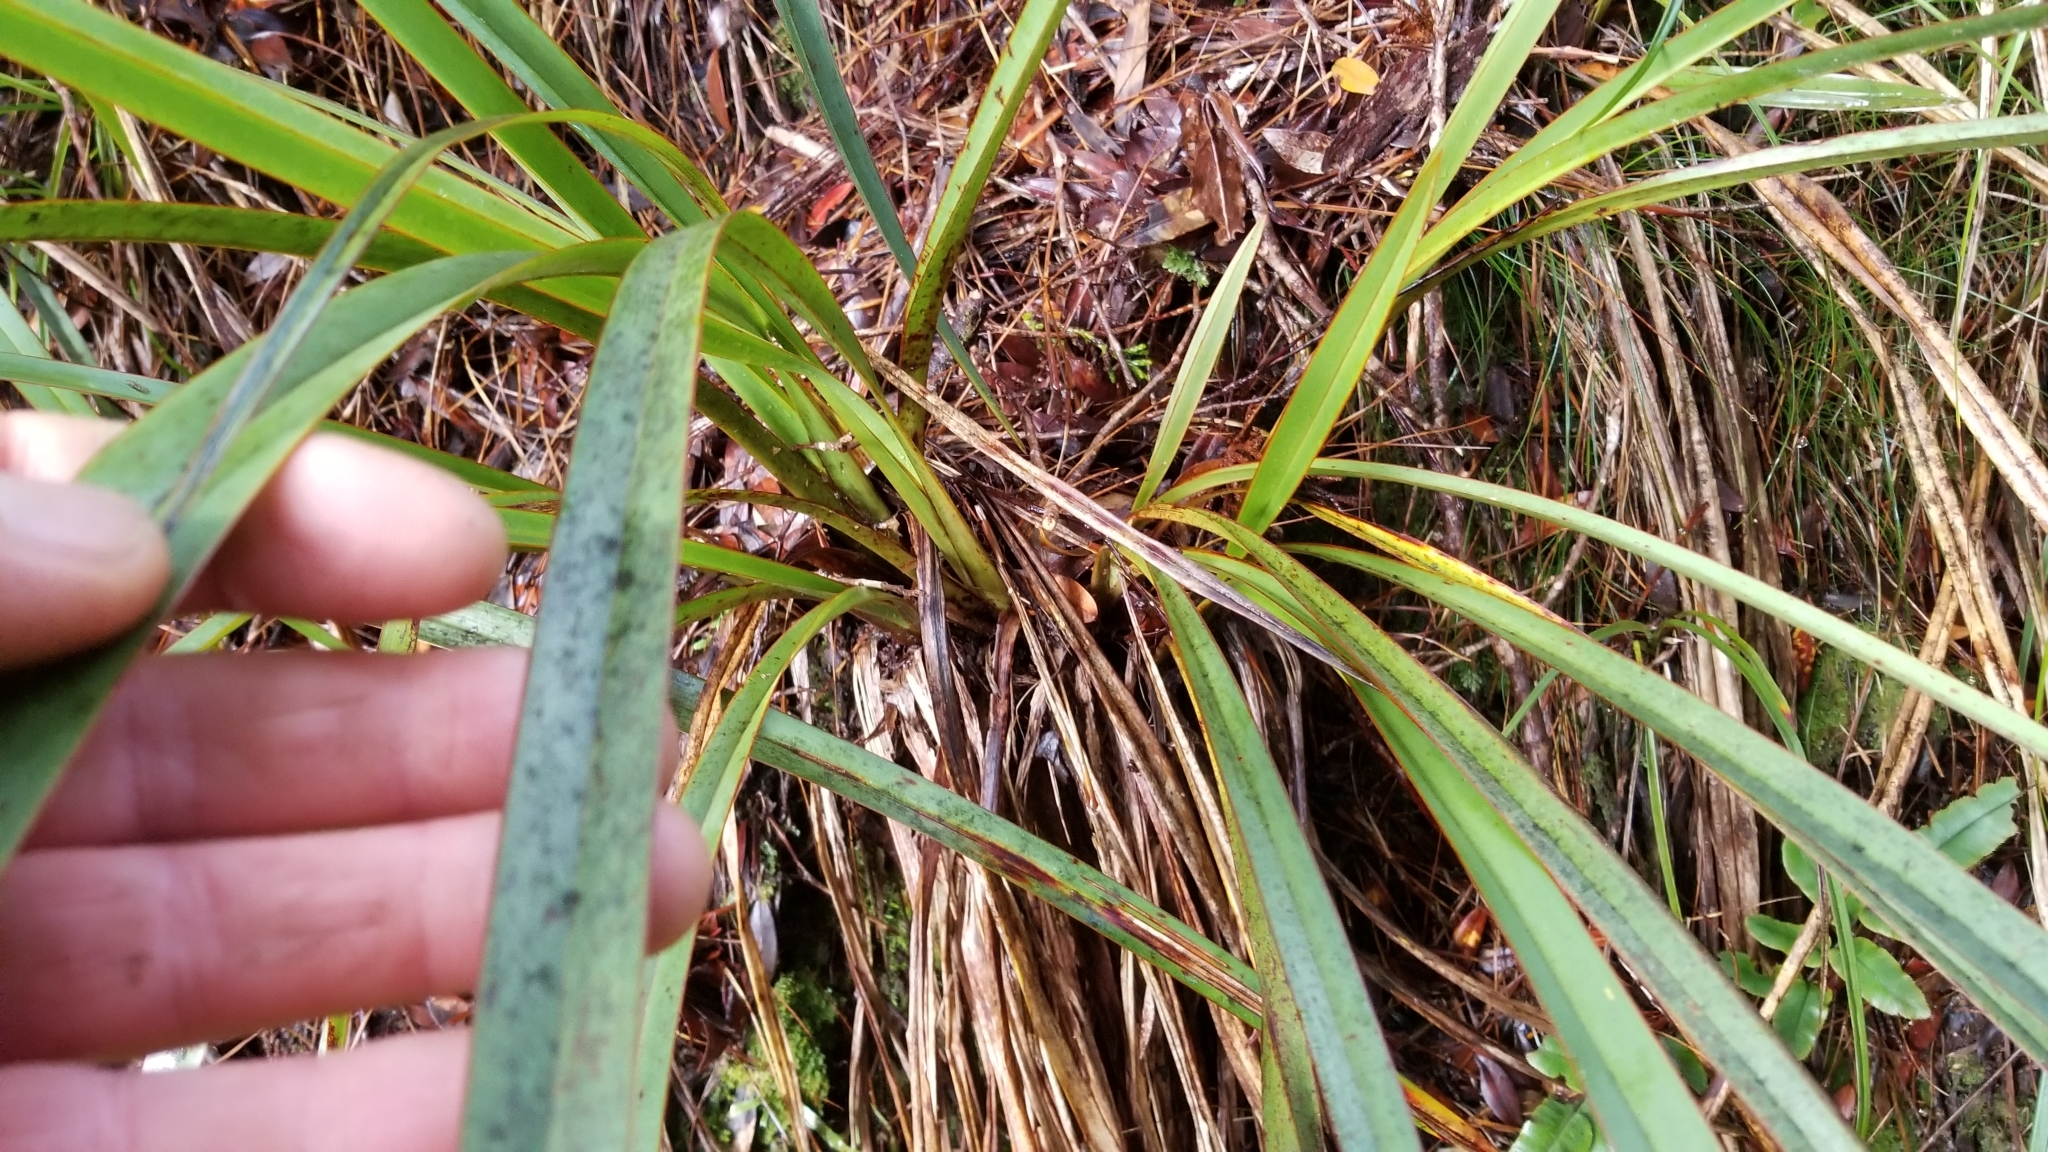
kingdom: Plantae
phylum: Tracheophyta
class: Liliopsida
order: Asparagales
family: Asphodelaceae
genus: Phormium
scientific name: Phormium colensoi
